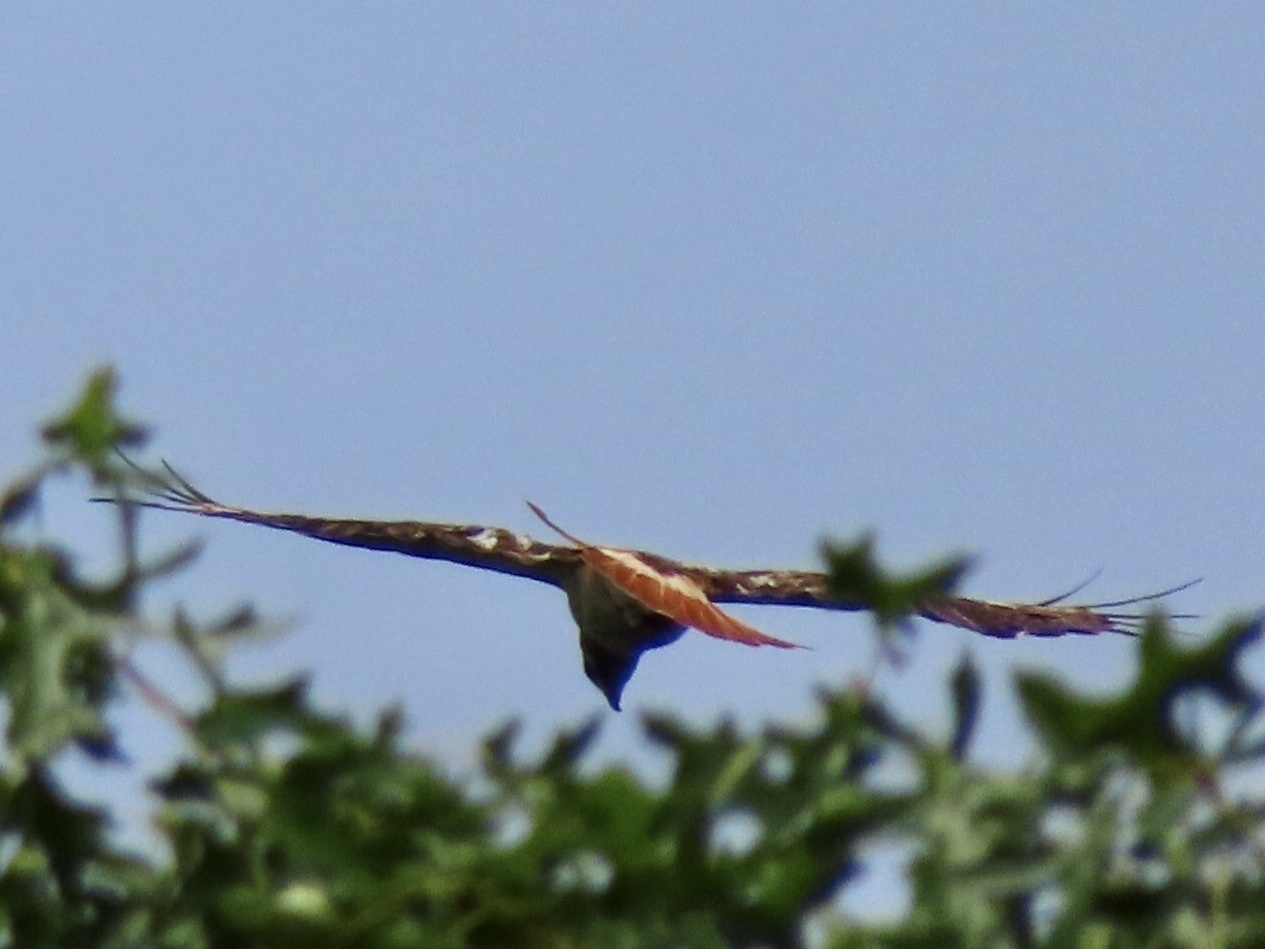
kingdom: Animalia
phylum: Chordata
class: Aves
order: Accipitriformes
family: Accipitridae
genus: Buteo
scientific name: Buteo jamaicensis
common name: Red-tailed hawk
